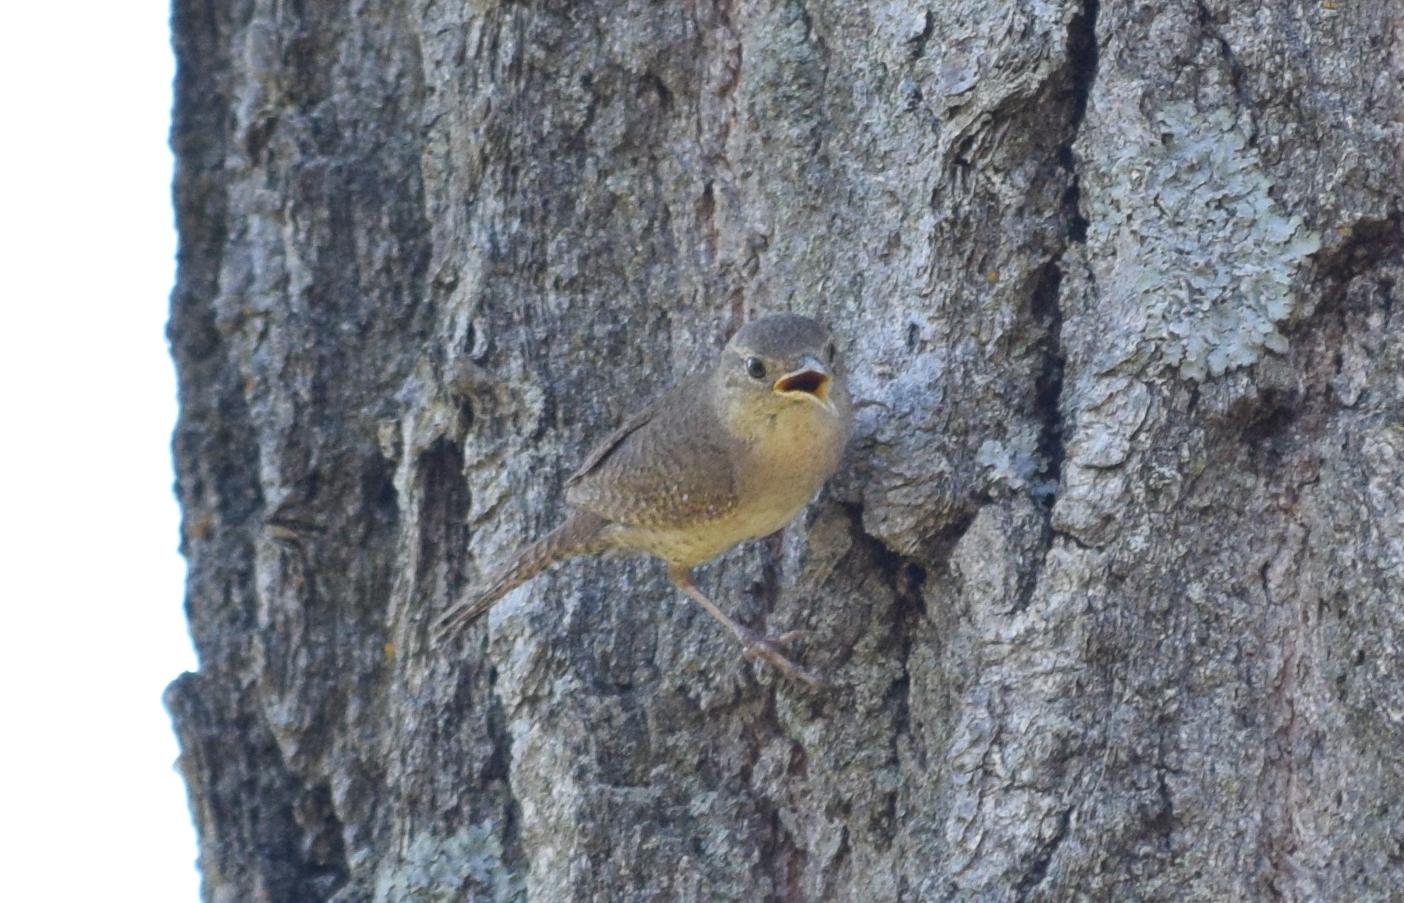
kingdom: Animalia
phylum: Chordata
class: Aves
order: Passeriformes
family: Troglodytidae
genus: Troglodytes
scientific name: Troglodytes aedon
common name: House wren
